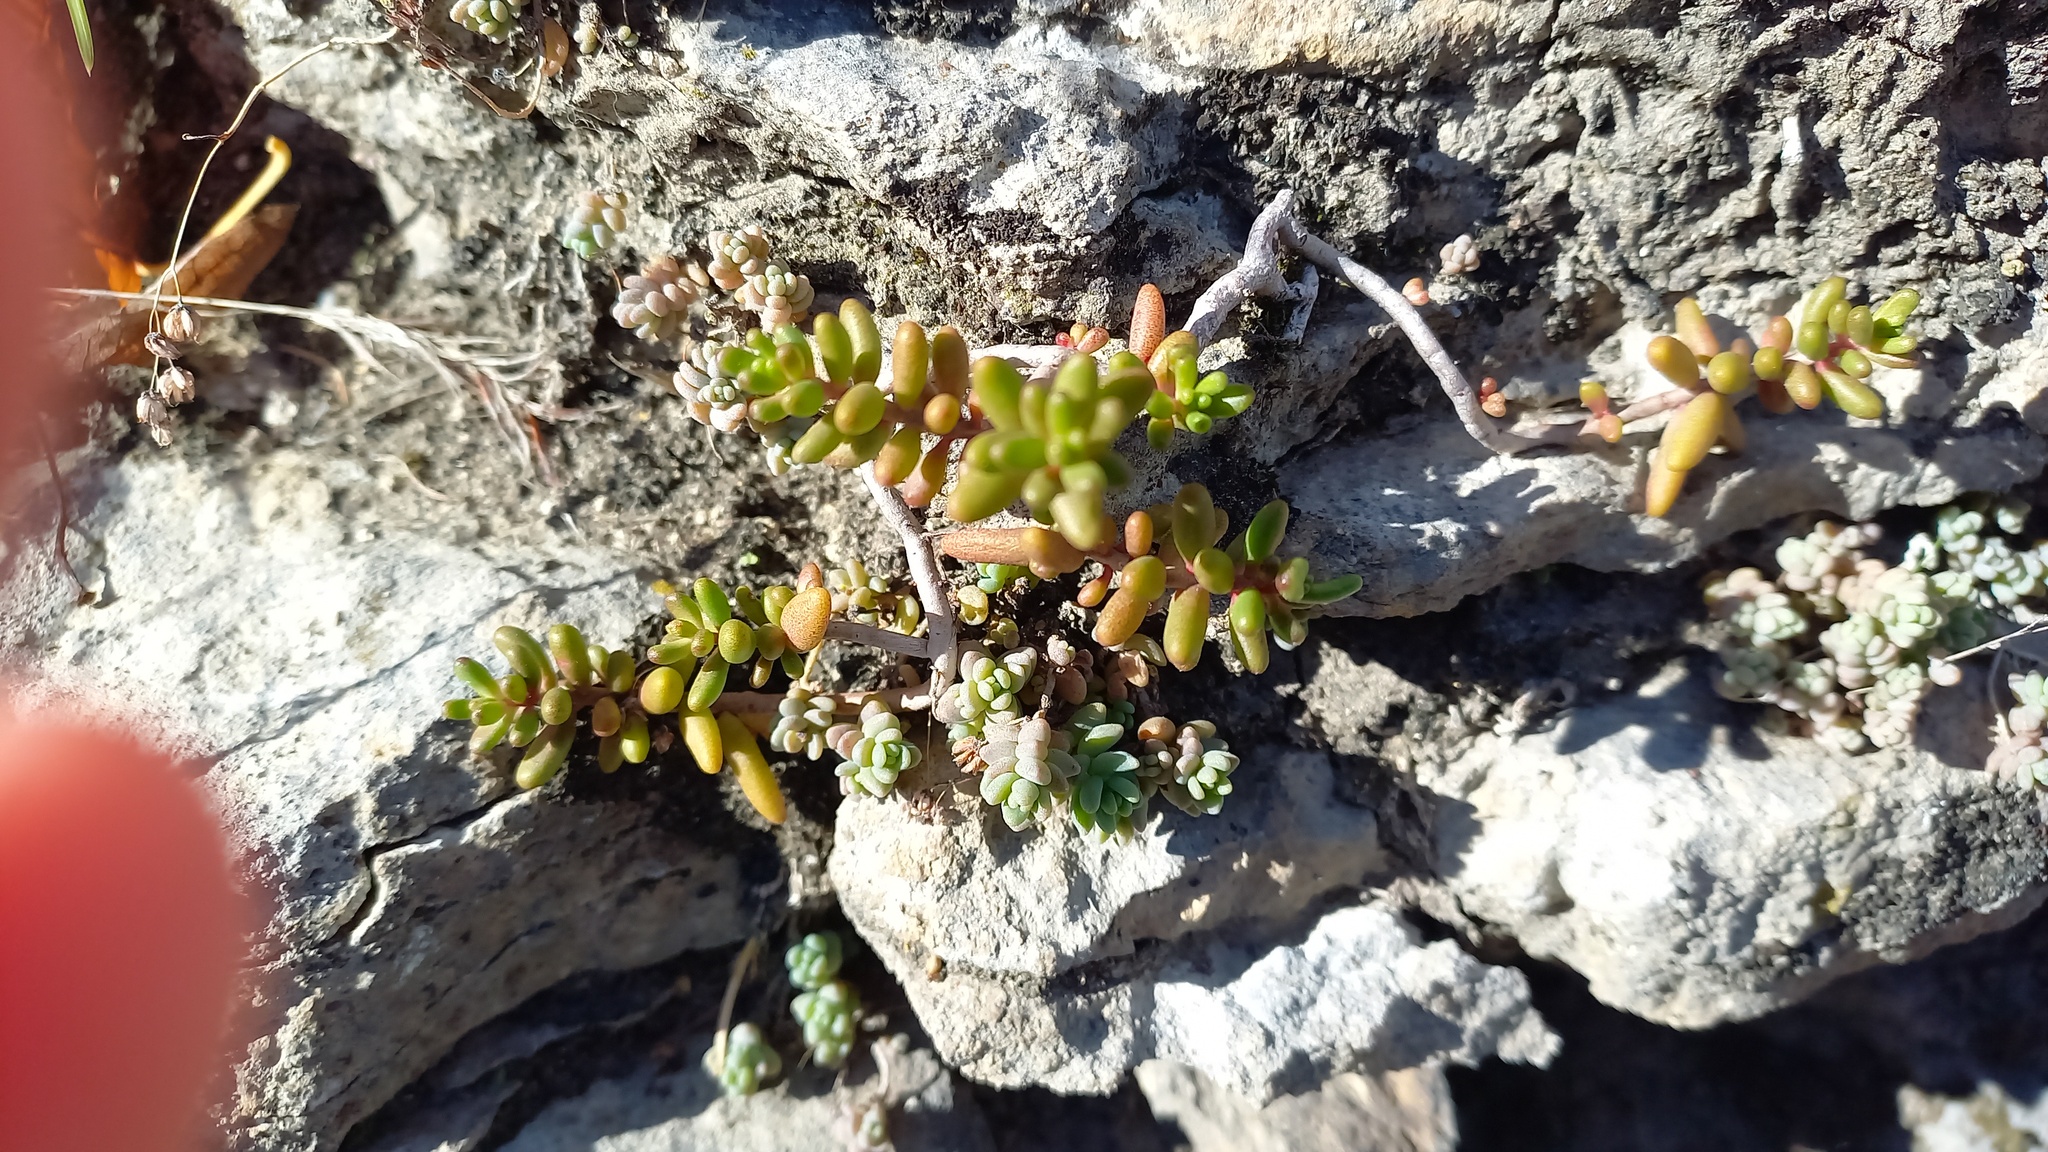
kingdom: Plantae
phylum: Tracheophyta
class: Magnoliopsida
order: Saxifragales
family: Crassulaceae
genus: Sedum
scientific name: Sedum album
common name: White stonecrop
